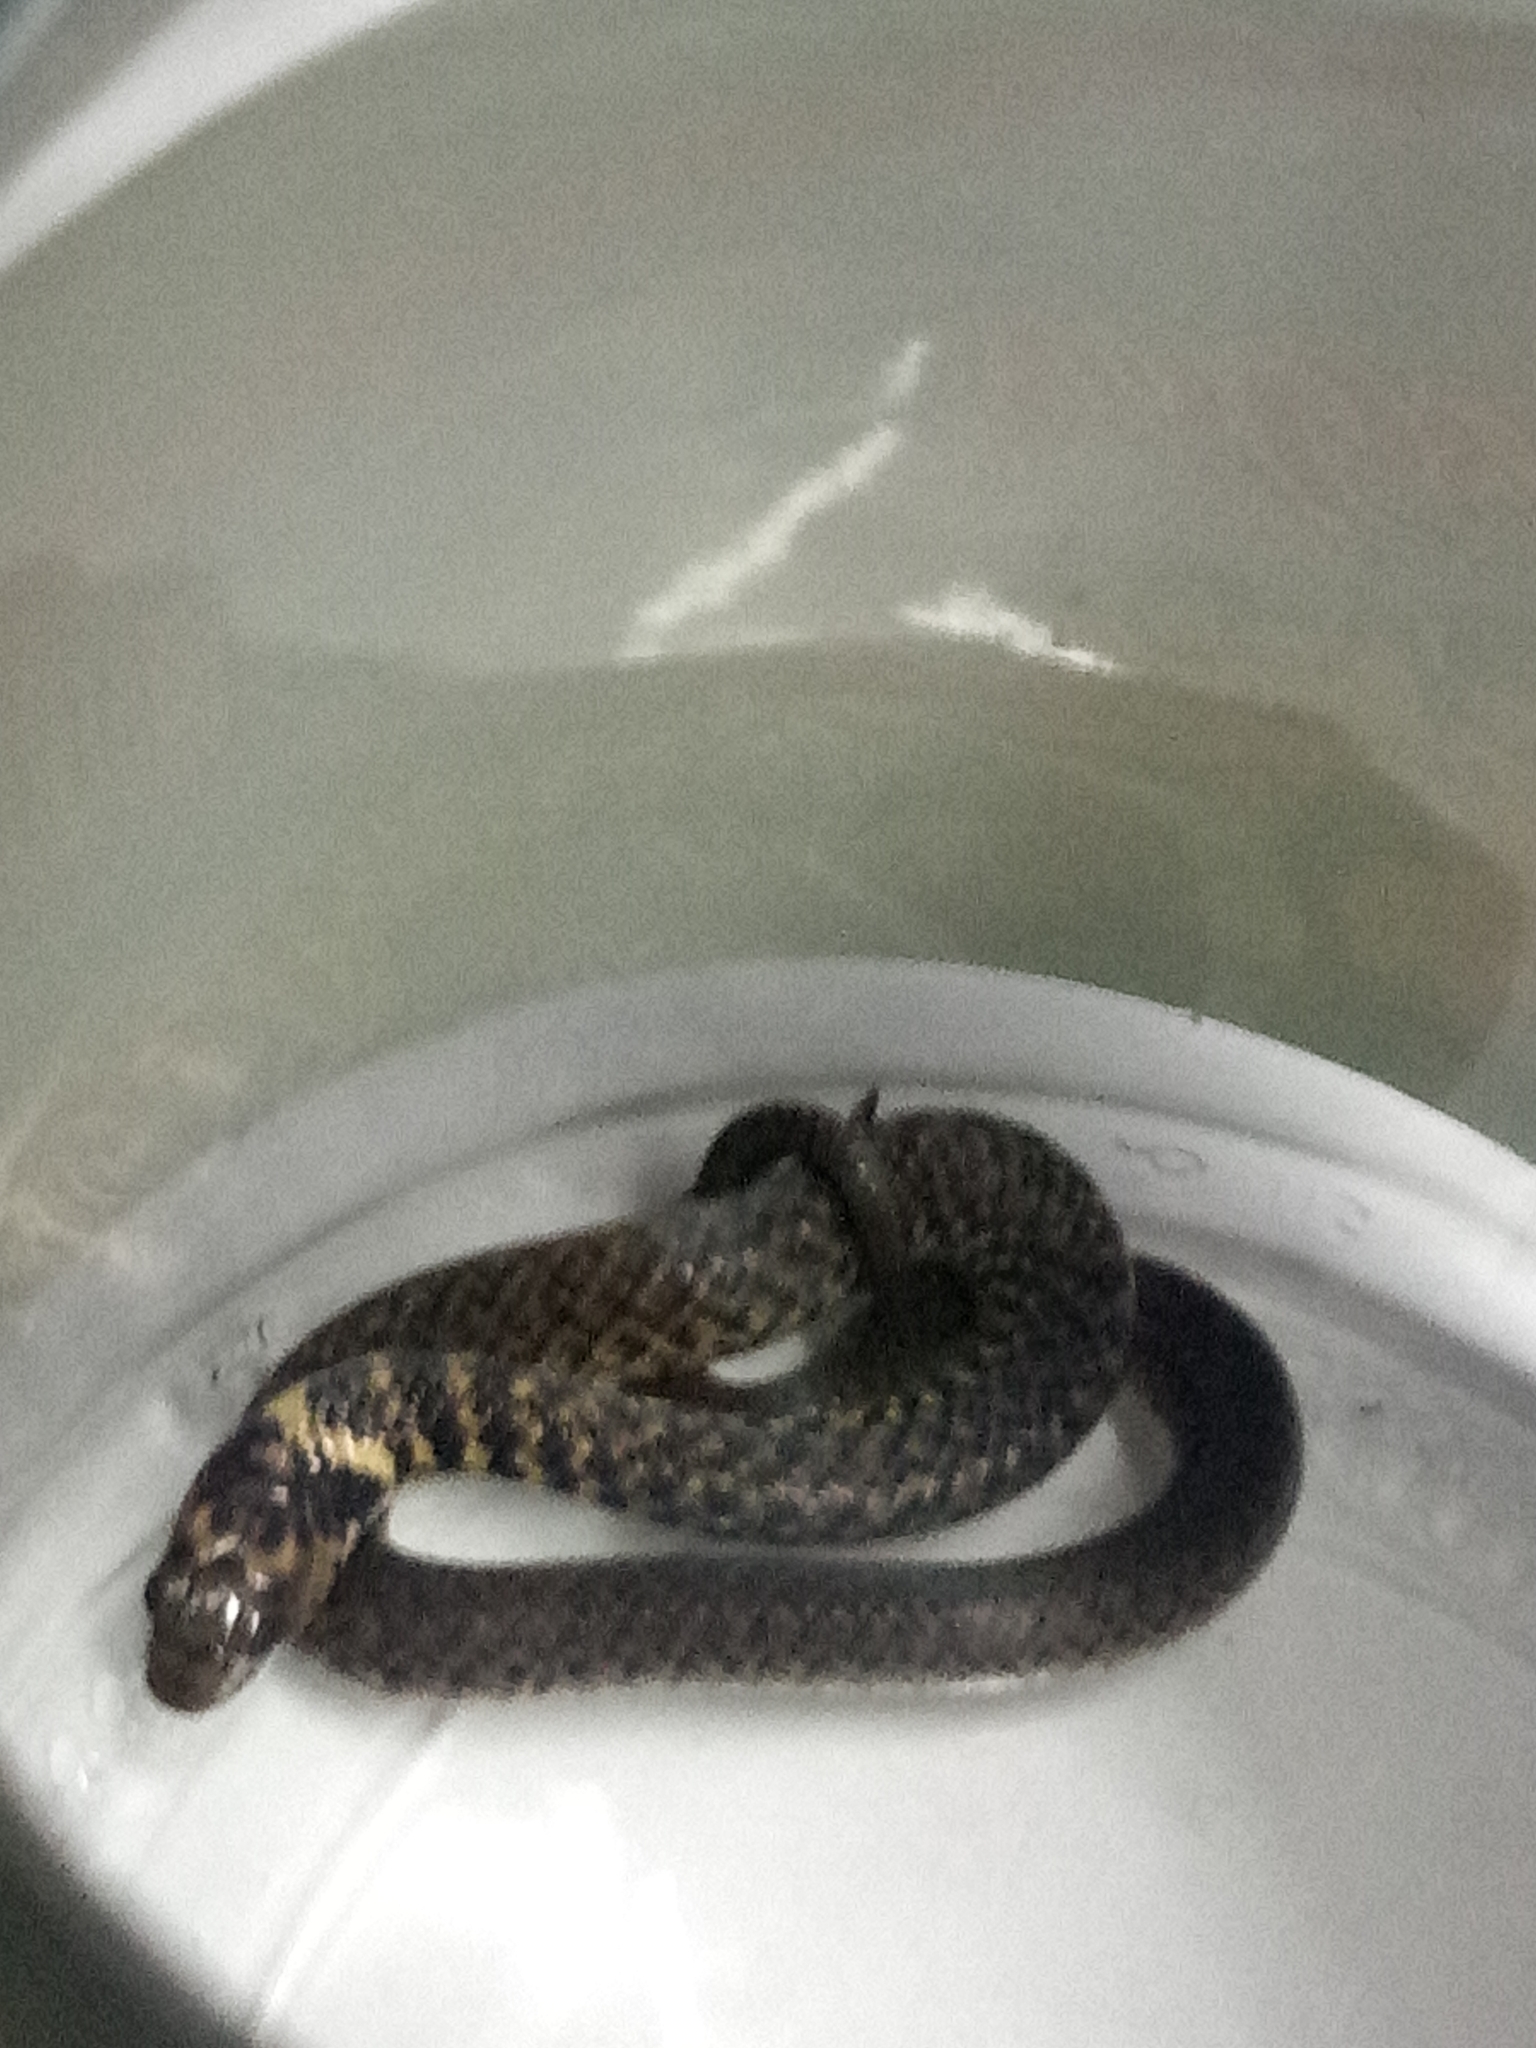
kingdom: Animalia
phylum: Chordata
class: Squamata
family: Colubridae
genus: Erythrolamprus
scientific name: Erythrolamprus miliaris
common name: Military ground snake
